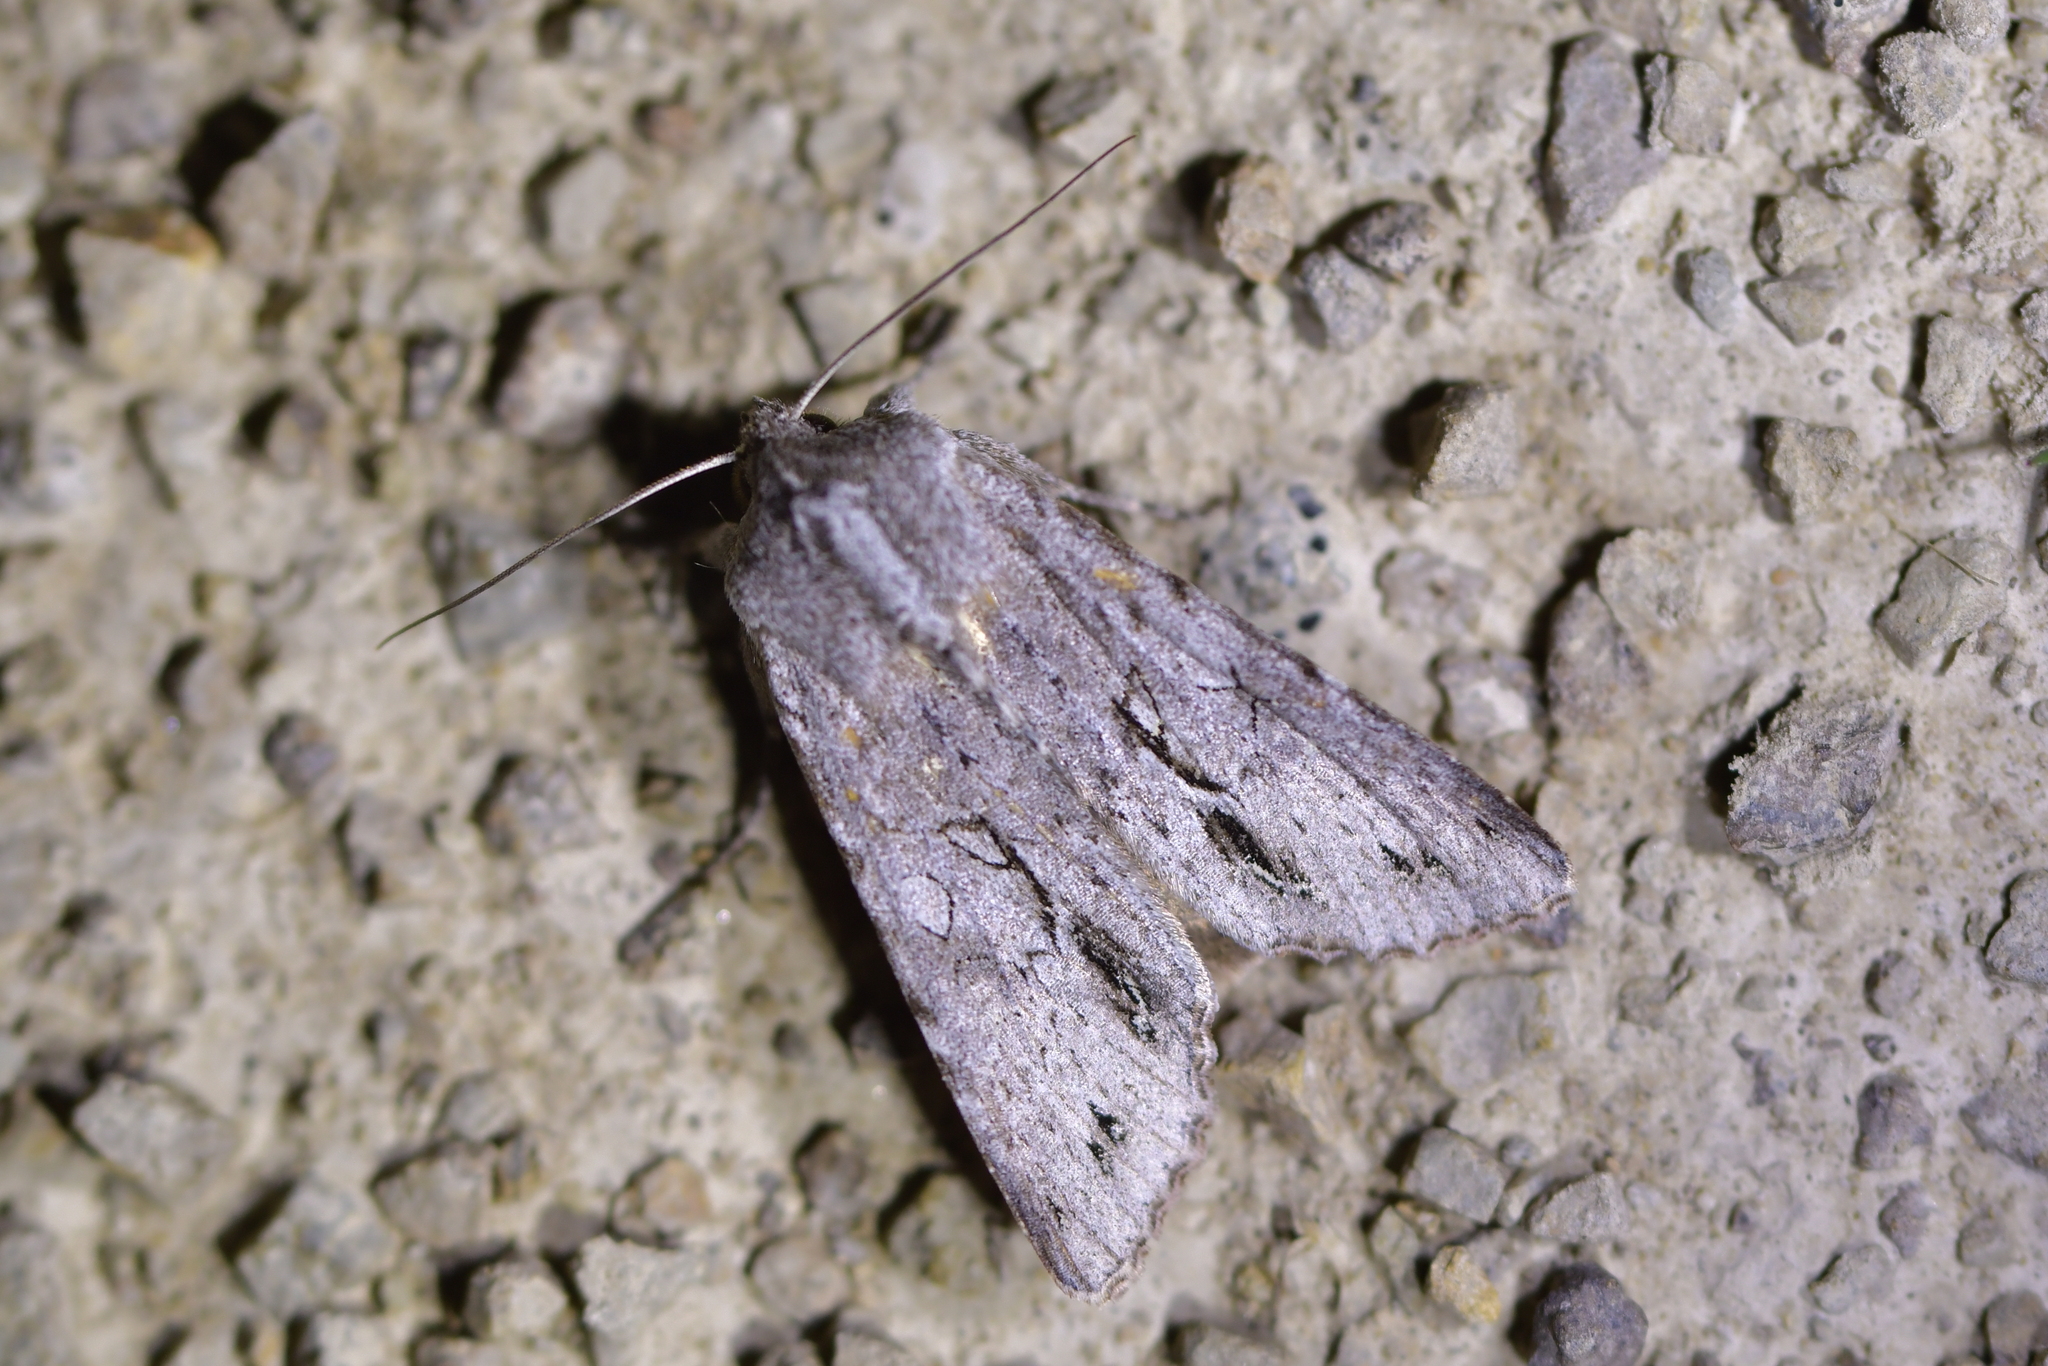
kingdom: Animalia
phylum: Arthropoda
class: Insecta
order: Lepidoptera
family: Noctuidae
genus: Ichneutica
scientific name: Ichneutica
